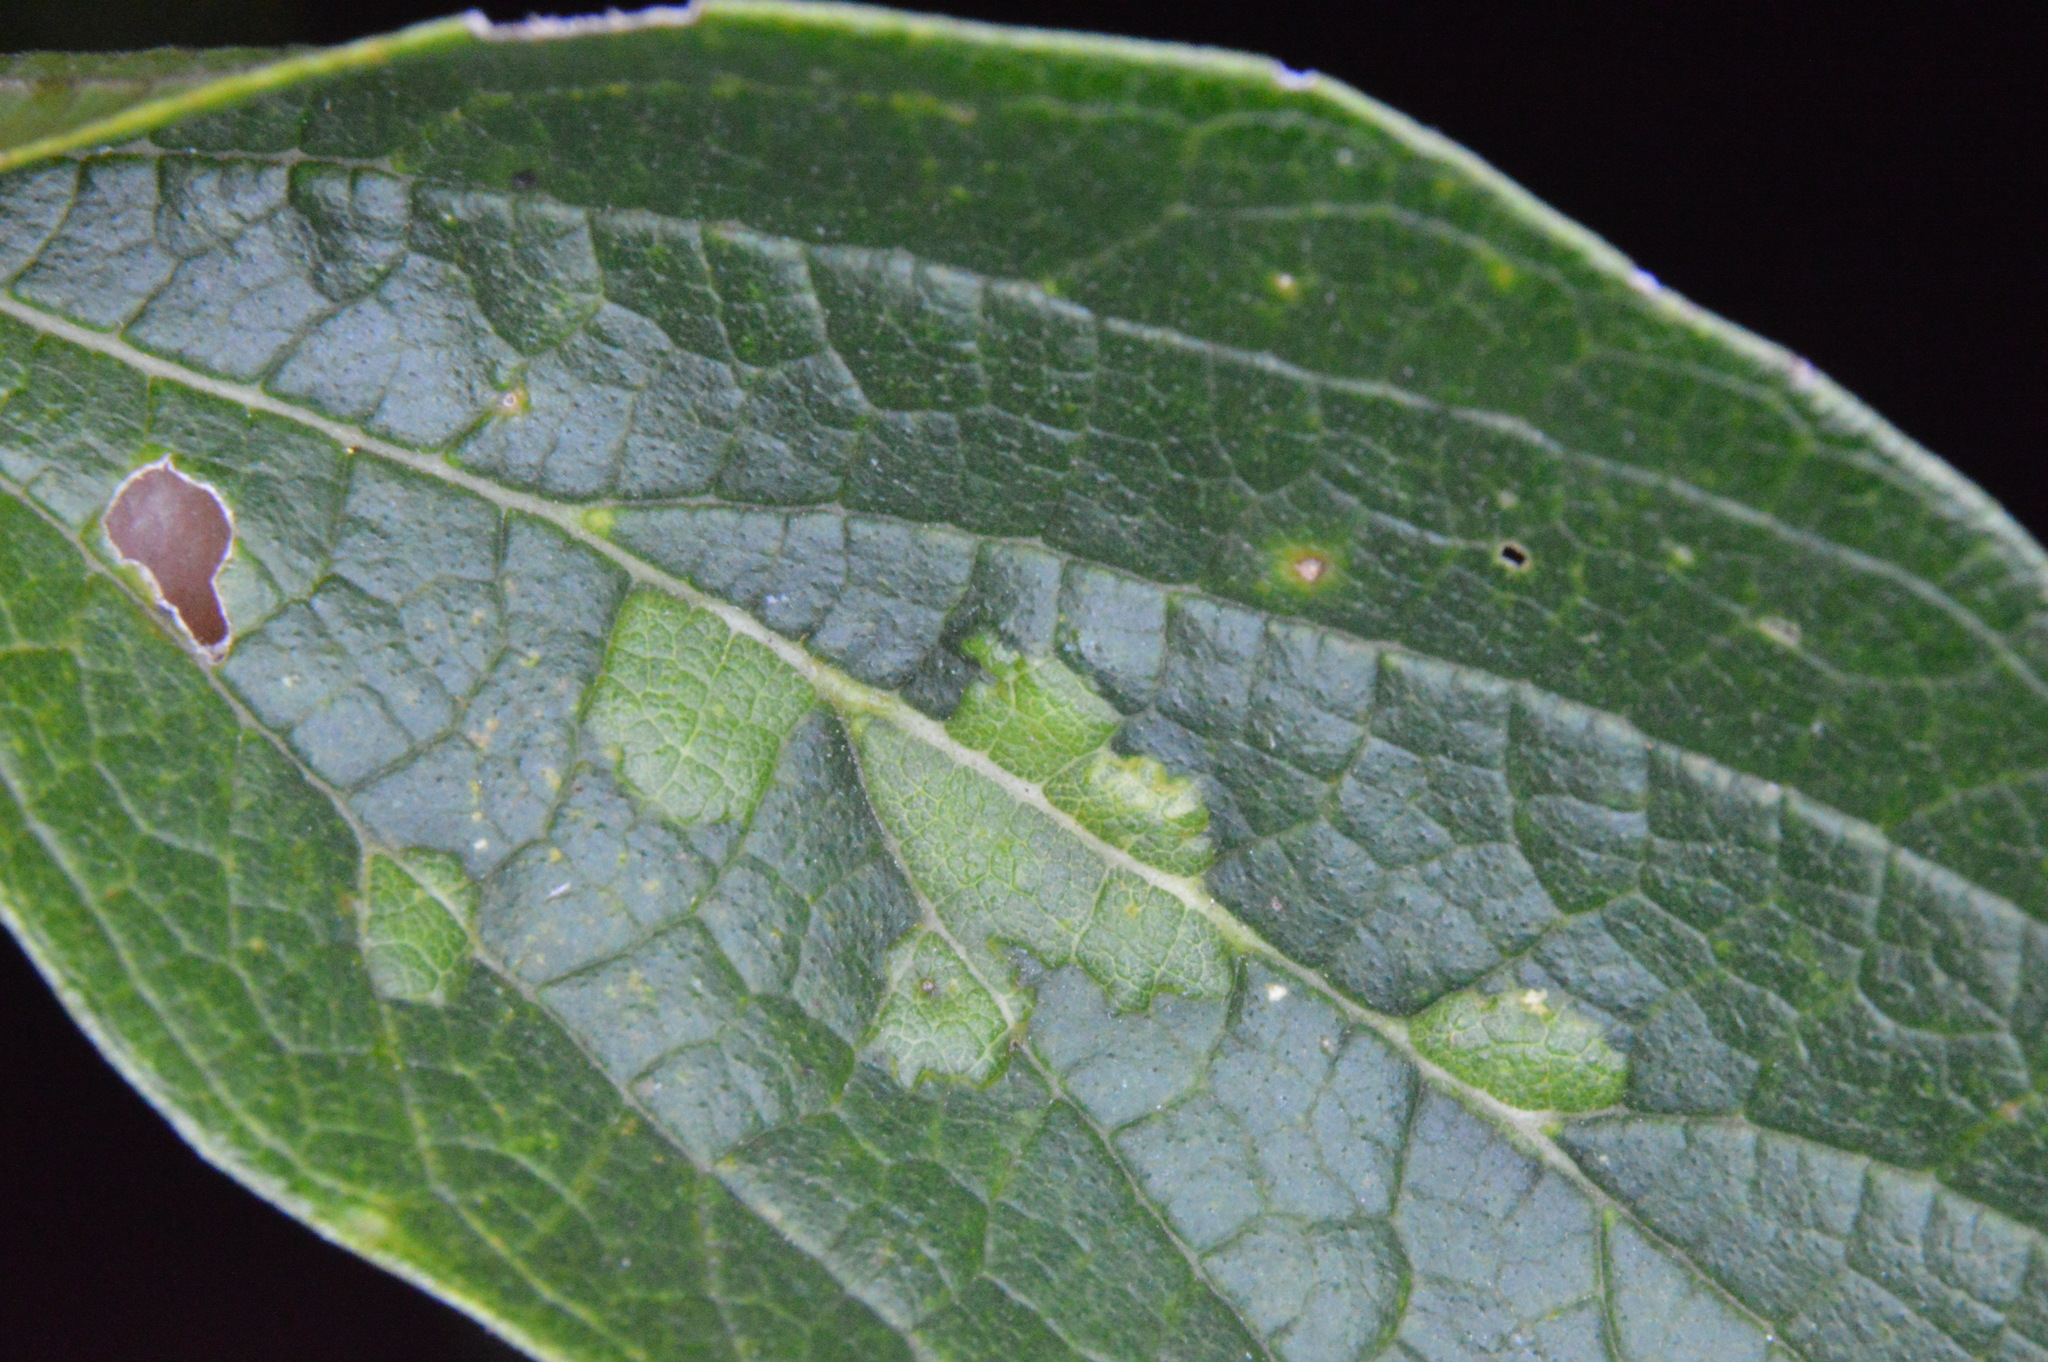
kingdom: Animalia
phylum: Arthropoda
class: Insecta
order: Hemiptera
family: Aphalaridae
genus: Pachypsylla
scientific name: Pachypsylla celtidisvesicula
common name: Hackberry blister gall psyllid
